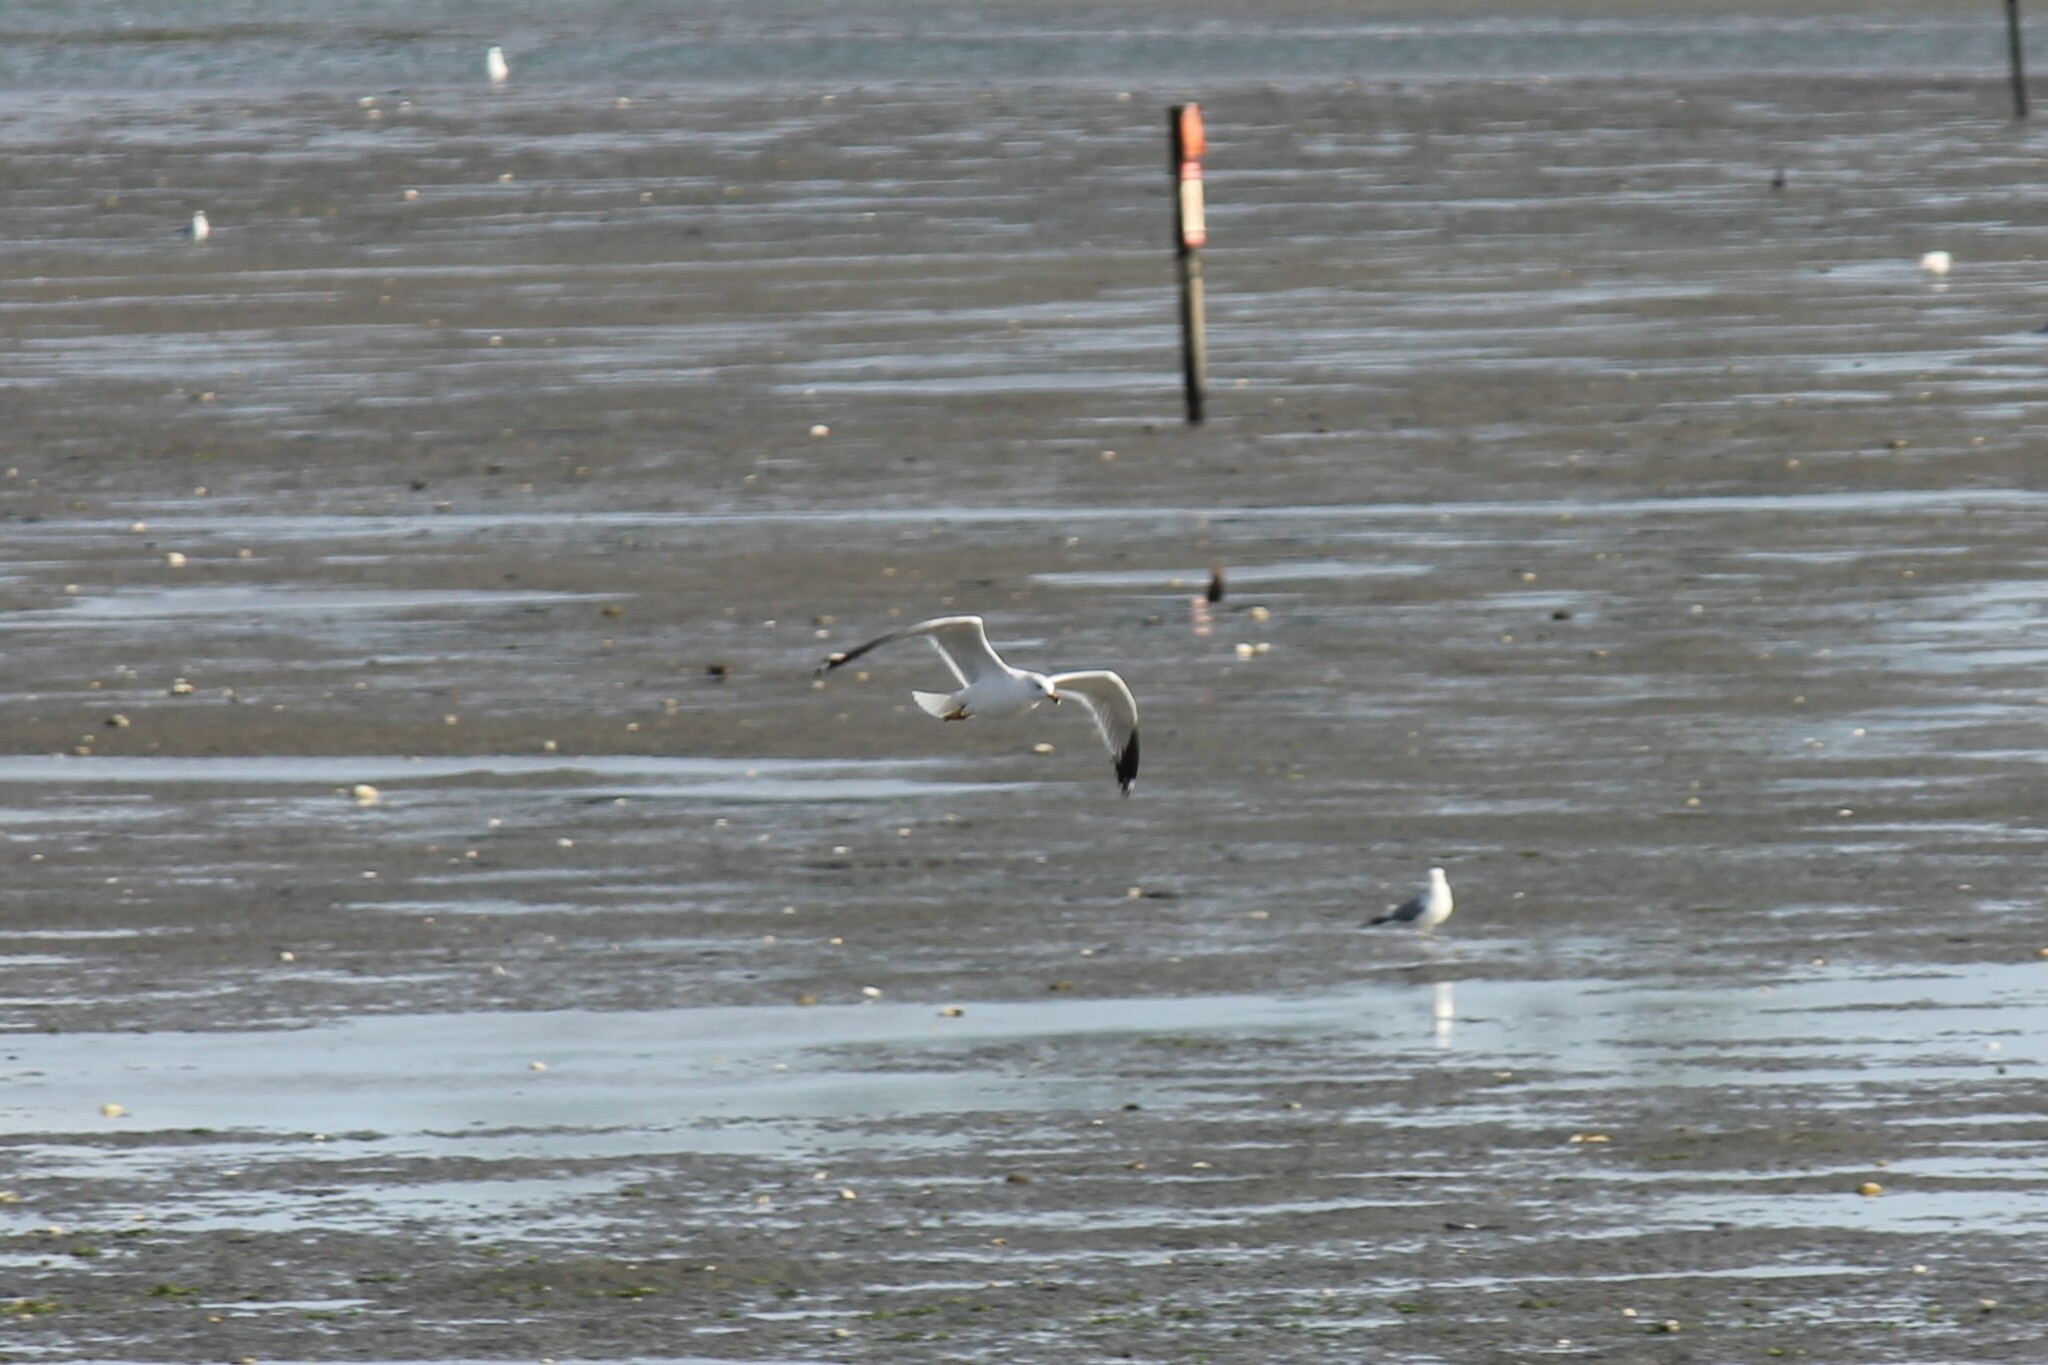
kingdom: Animalia
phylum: Chordata
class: Aves
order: Charadriiformes
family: Laridae
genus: Larus
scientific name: Larus delawarensis
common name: Ring-billed gull
